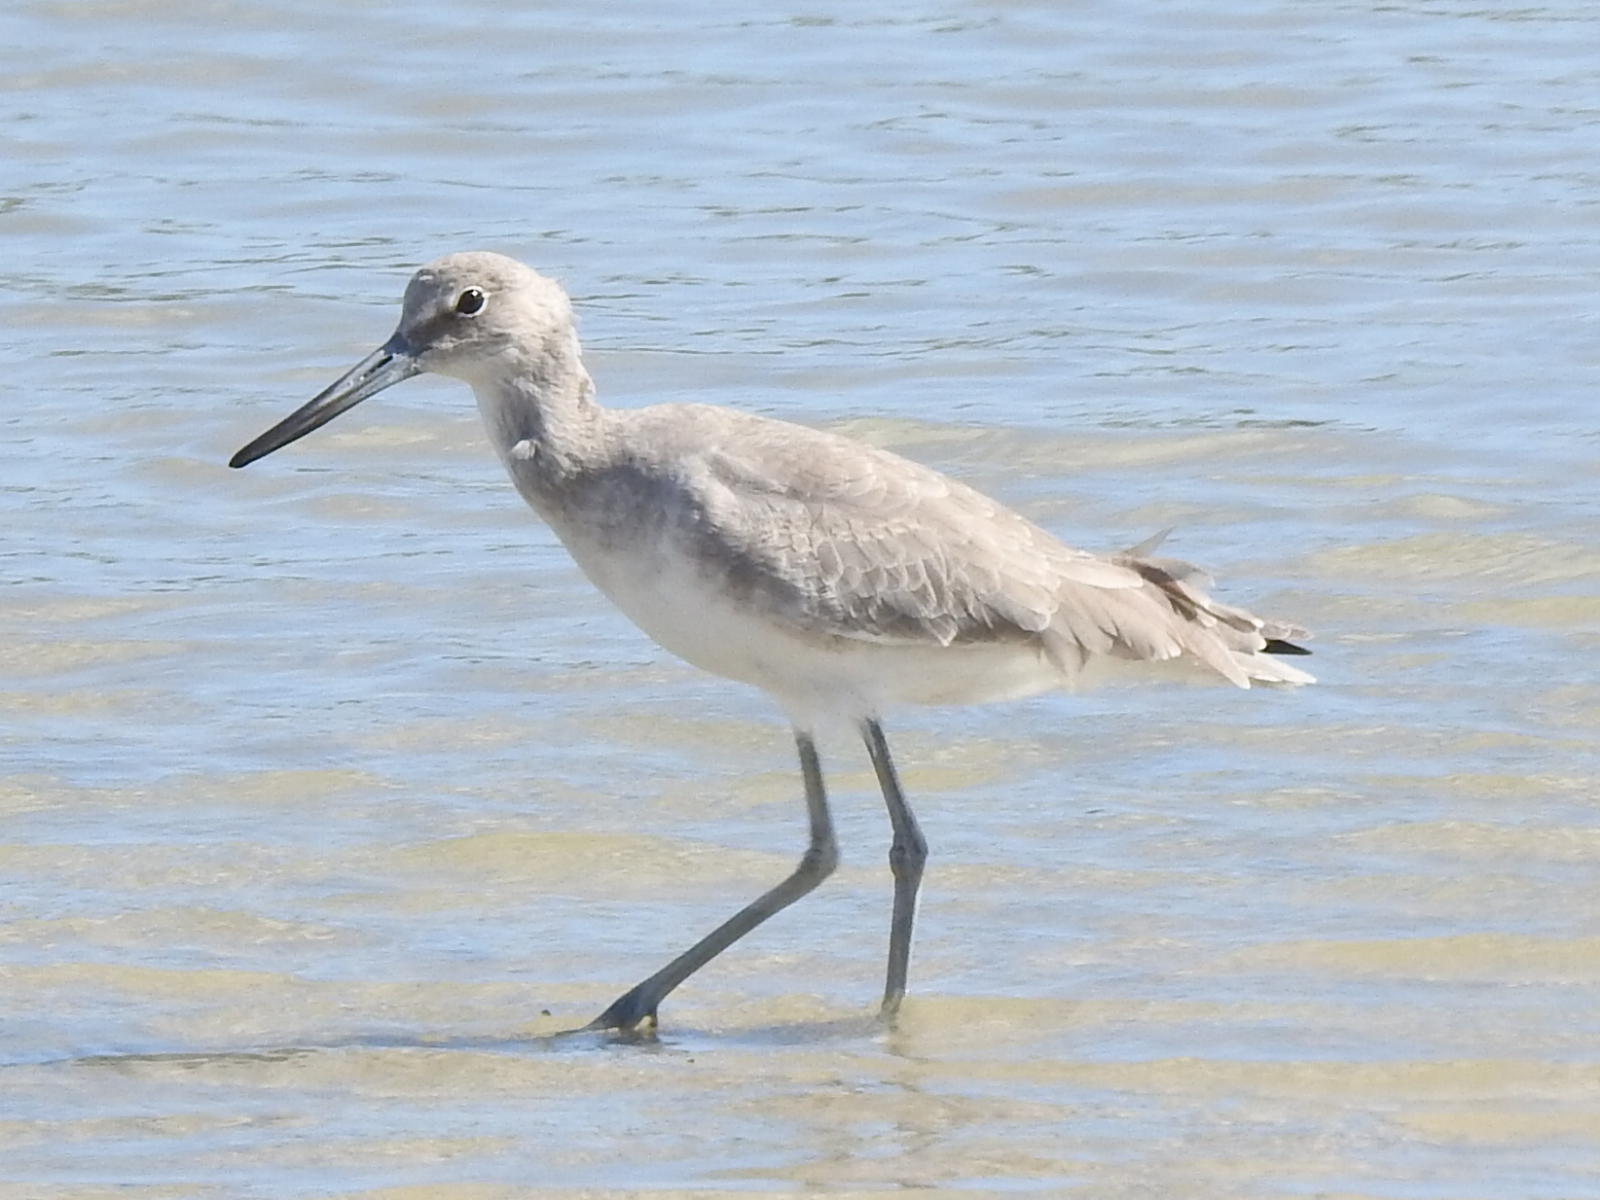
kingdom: Animalia
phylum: Chordata
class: Aves
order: Charadriiformes
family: Scolopacidae
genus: Tringa
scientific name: Tringa semipalmata
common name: Willet
